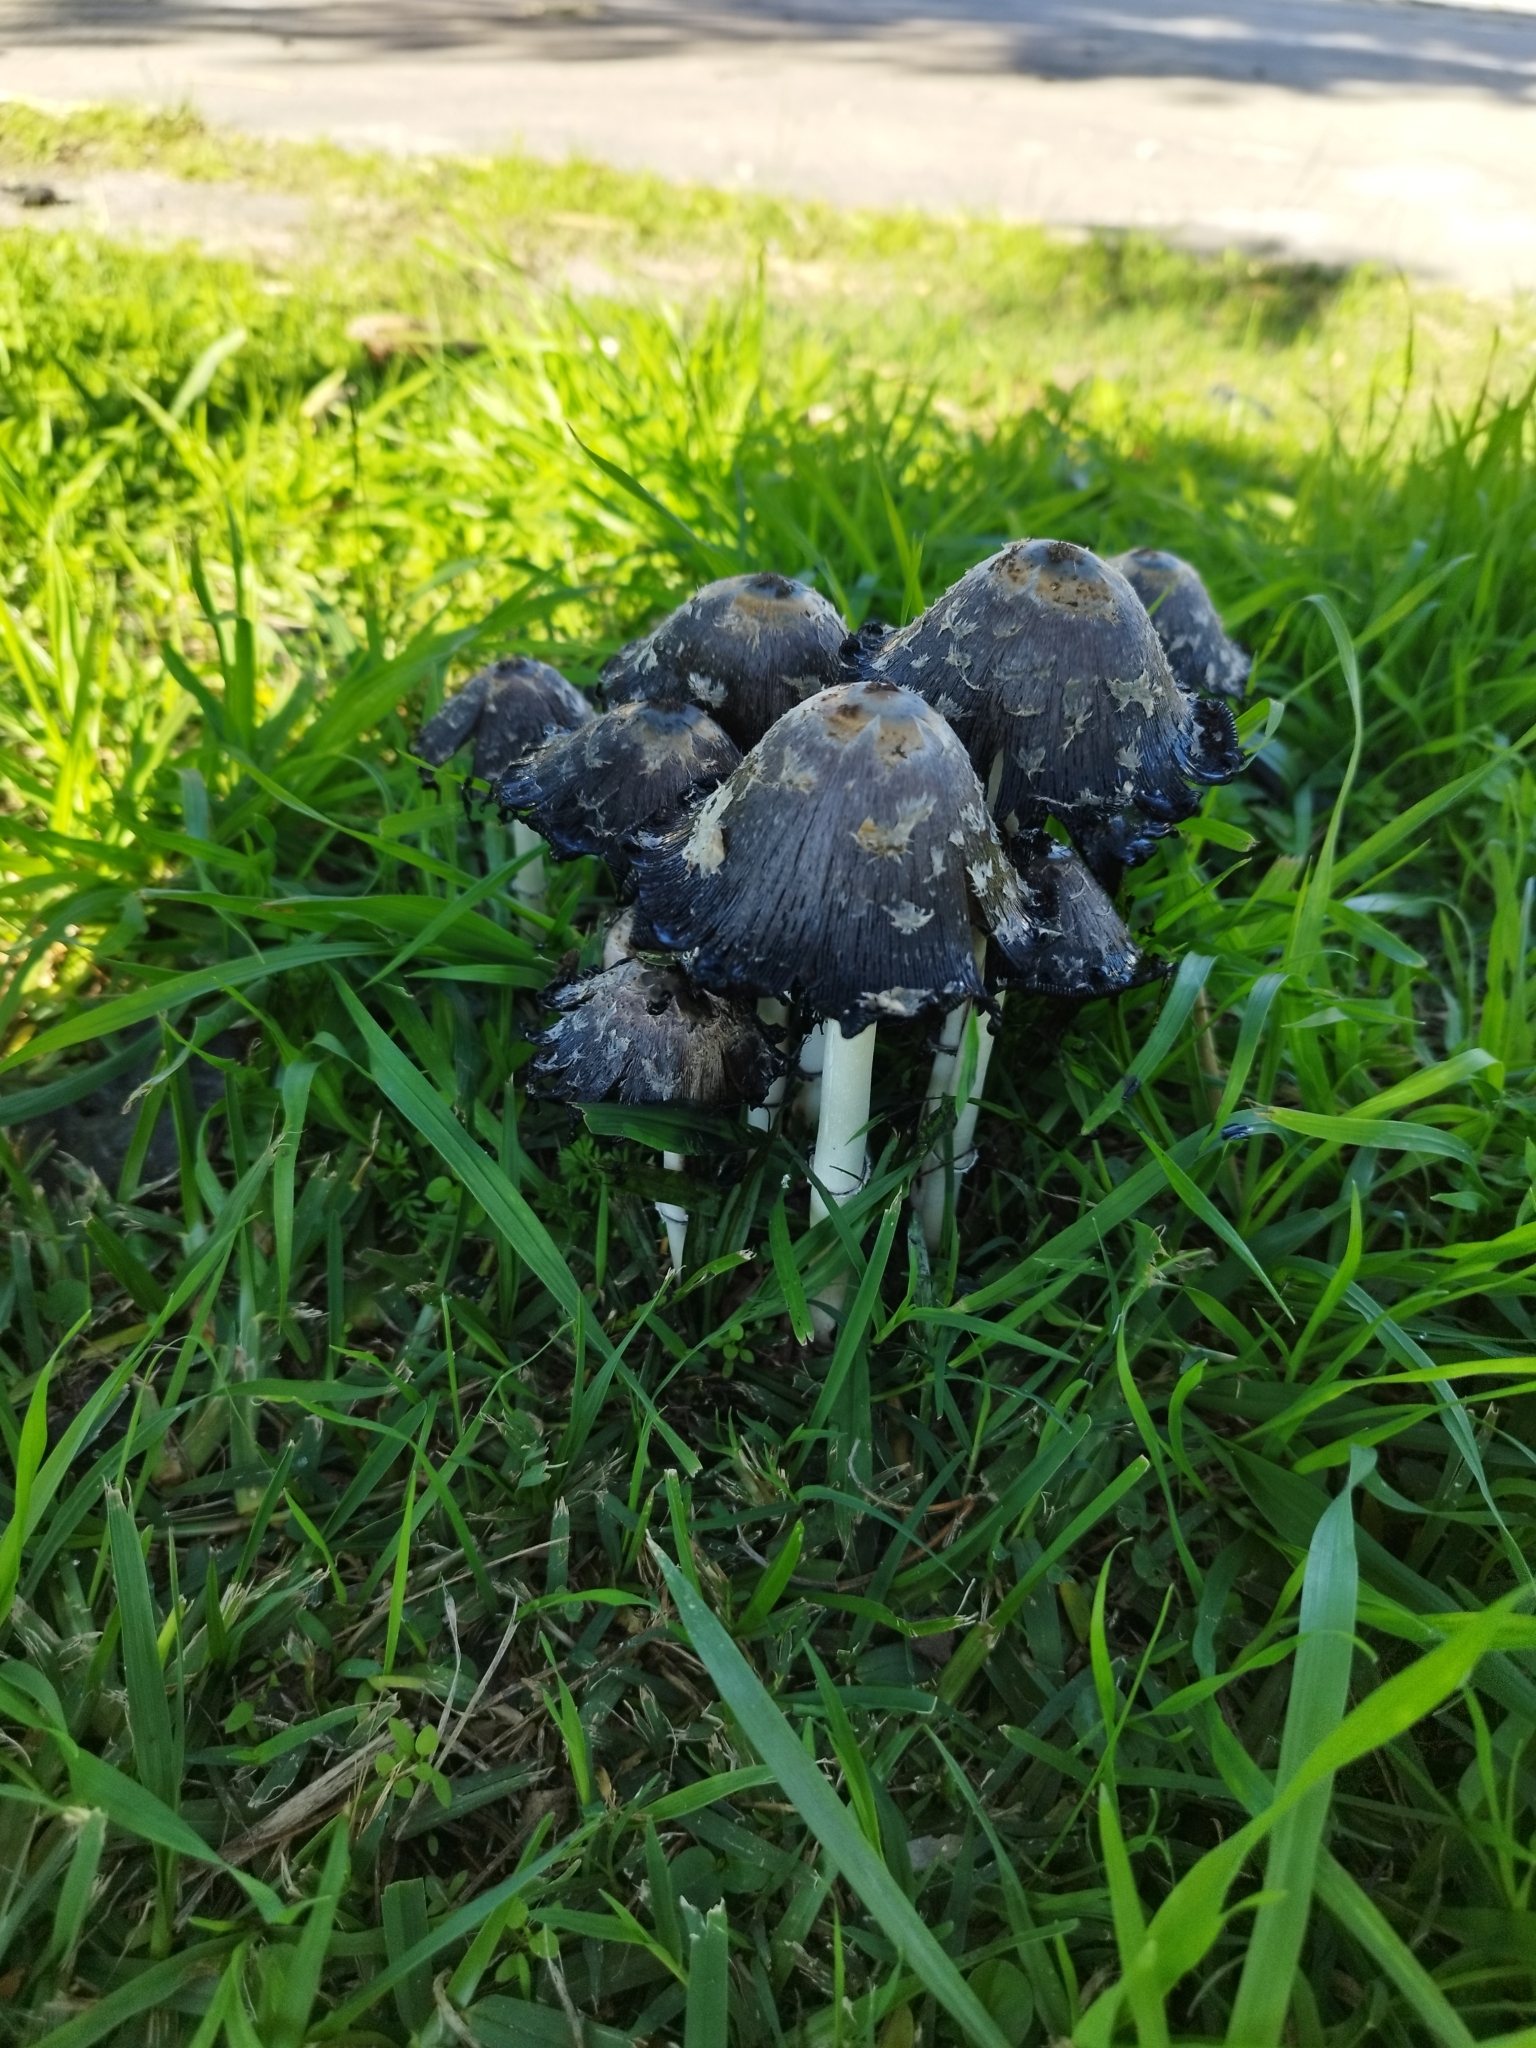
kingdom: Fungi
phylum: Basidiomycota
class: Agaricomycetes
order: Agaricales
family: Agaricaceae
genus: Coprinus
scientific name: Coprinus comatus
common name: Lawyer's wig
